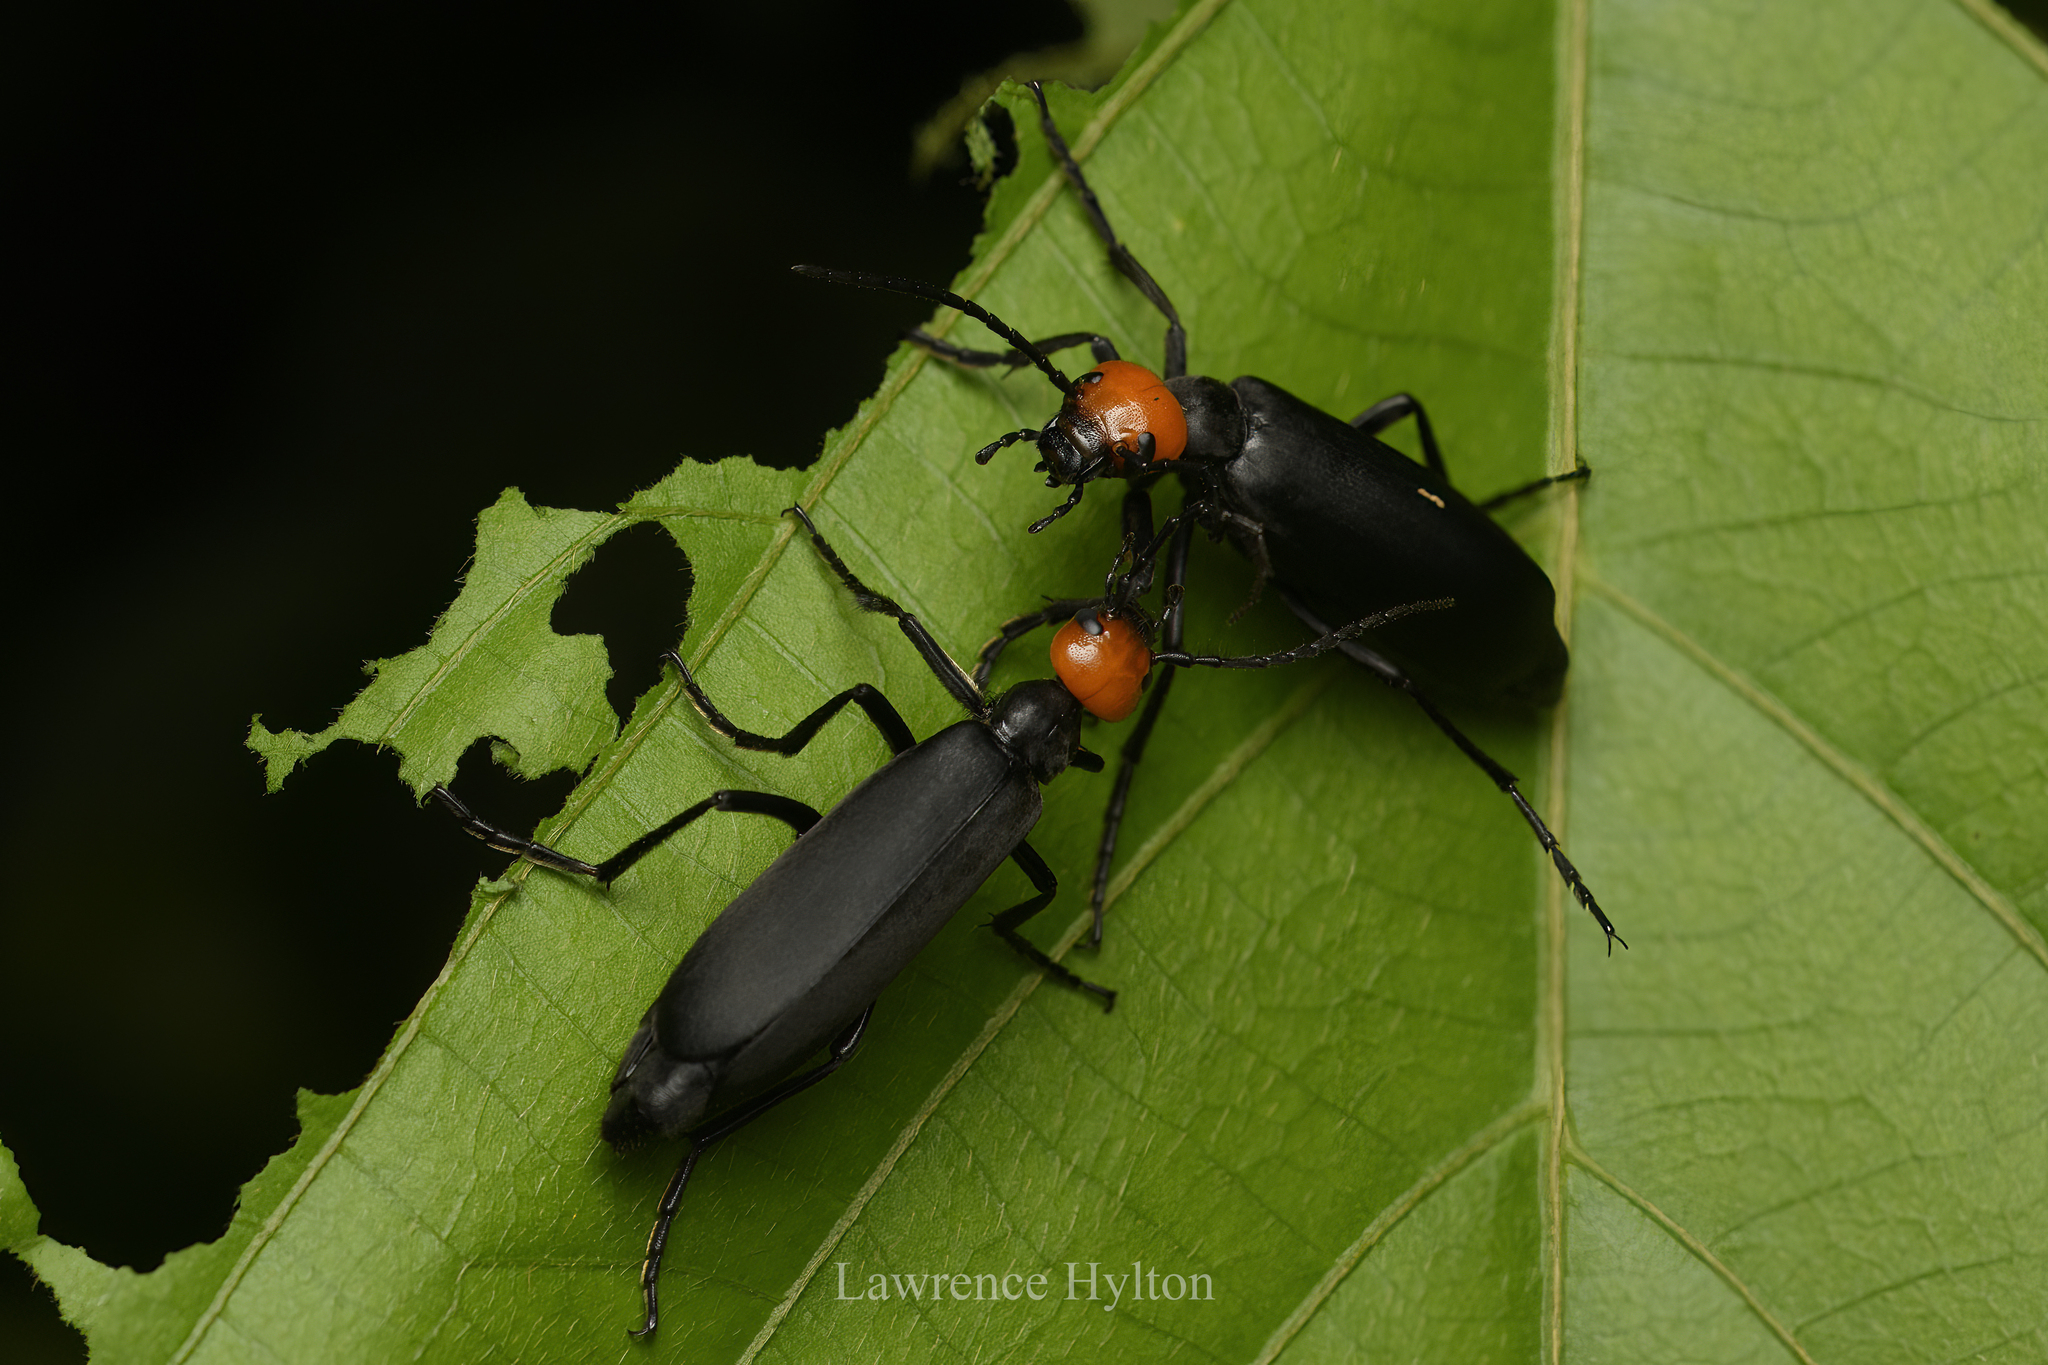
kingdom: Animalia
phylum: Arthropoda
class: Insecta
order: Coleoptera
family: Meloidae
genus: Epicauta
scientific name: Epicauta tibialis
